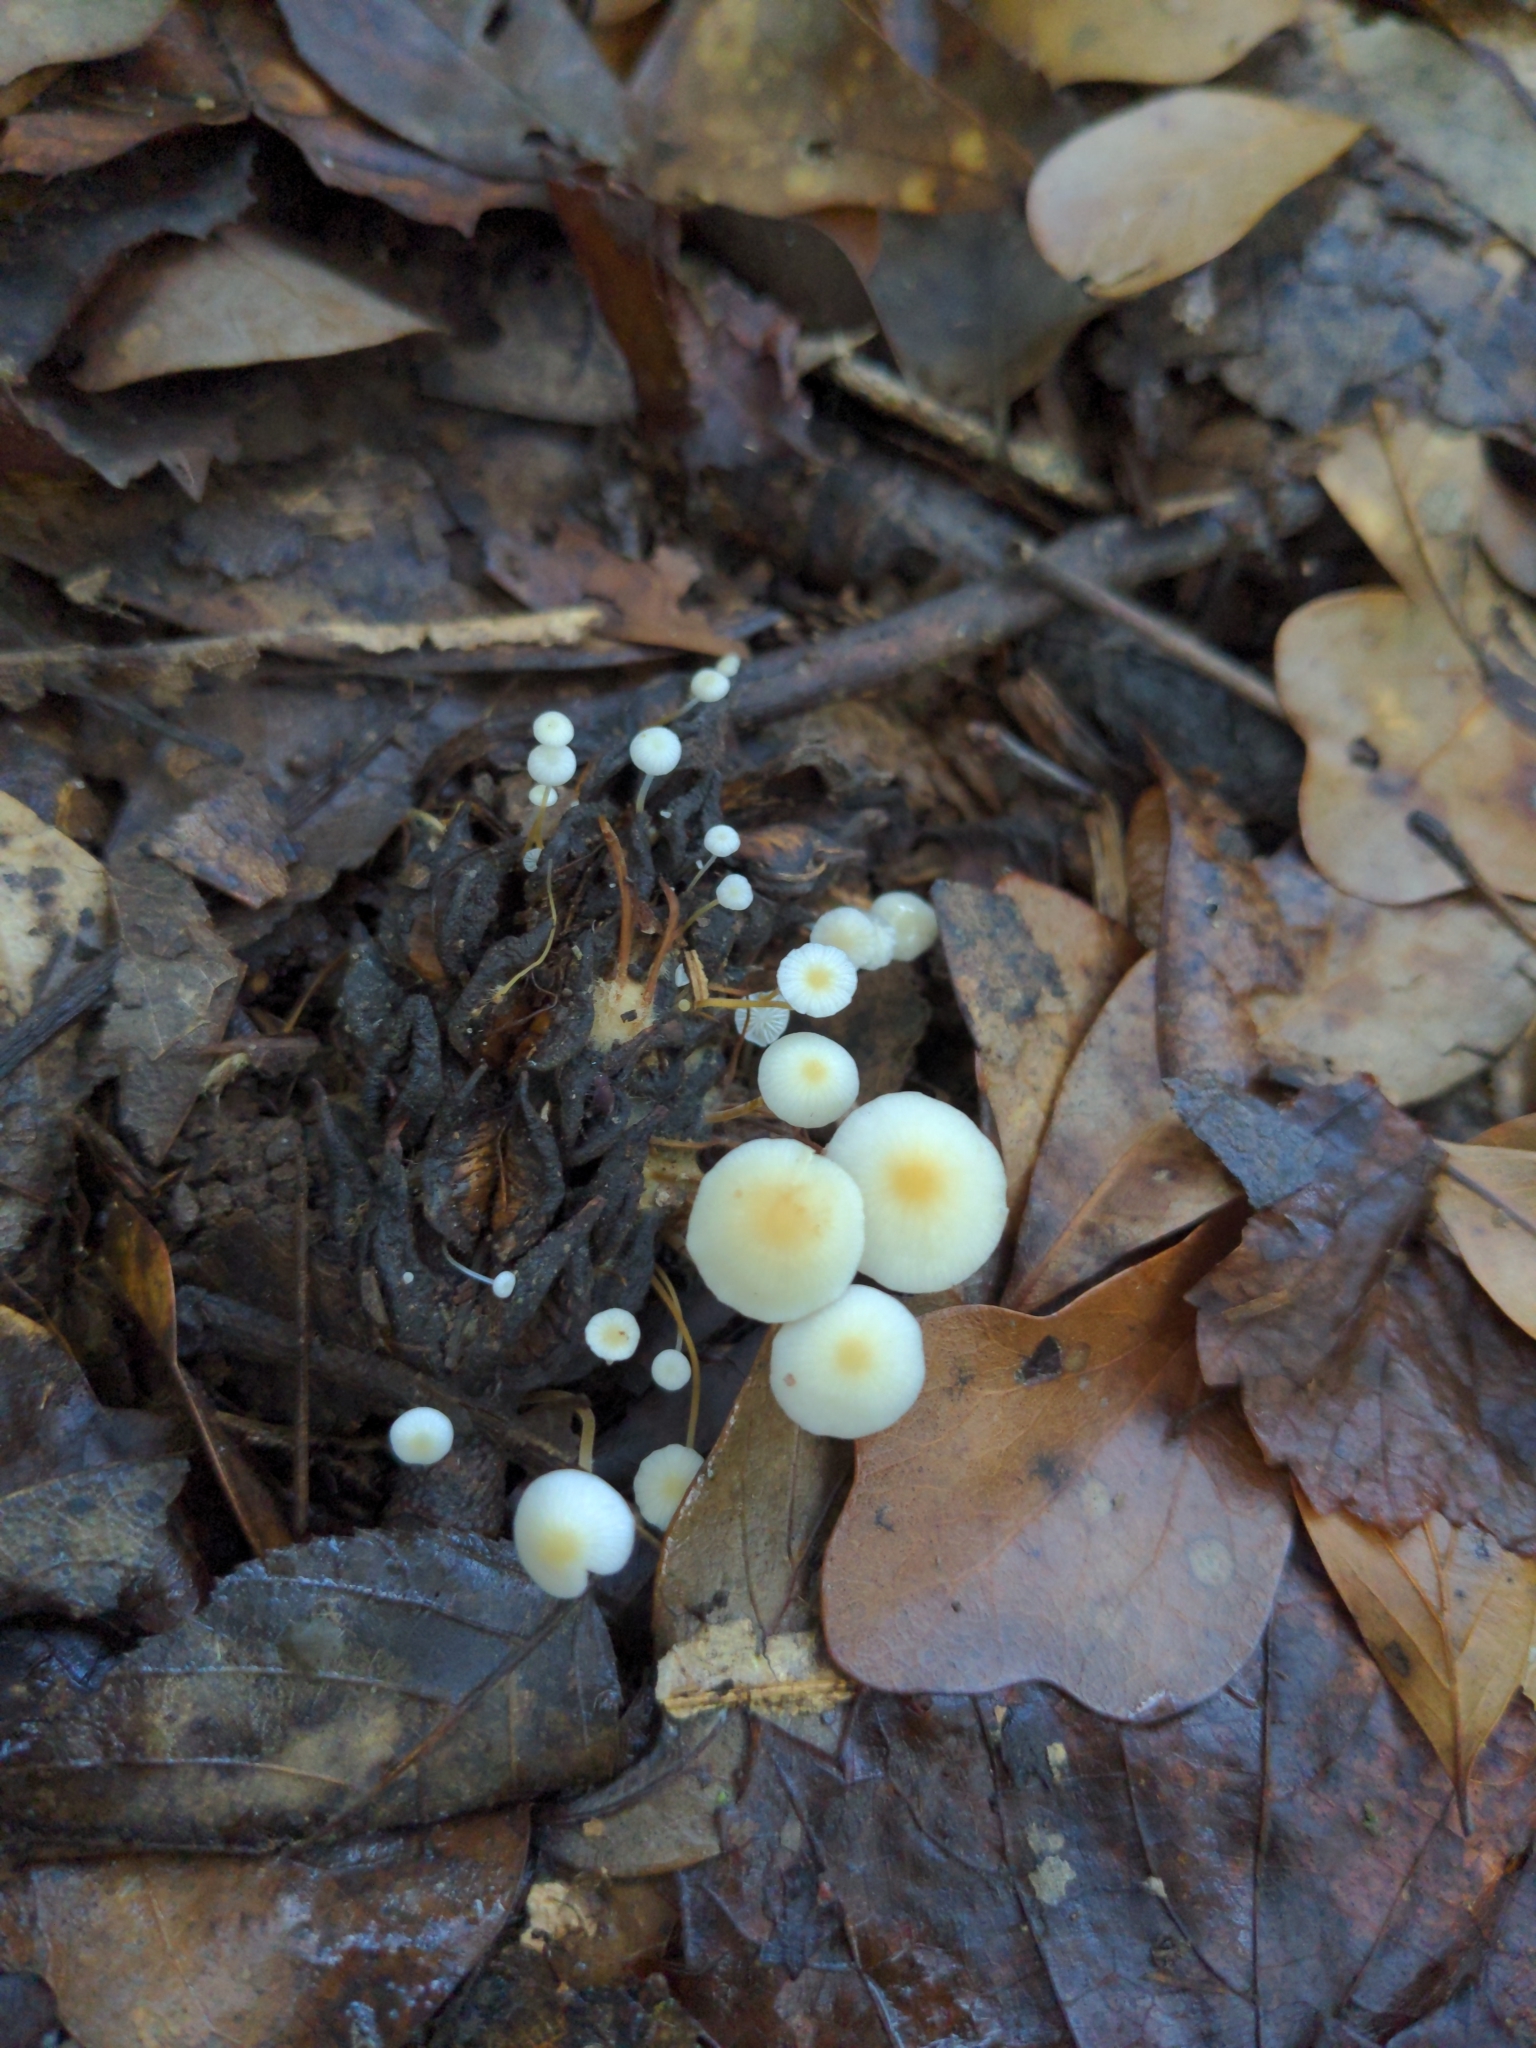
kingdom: Fungi
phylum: Basidiomycota
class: Agaricomycetes
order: Agaricales
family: Physalacriaceae
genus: Strobilurus
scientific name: Strobilurus conigenoides
